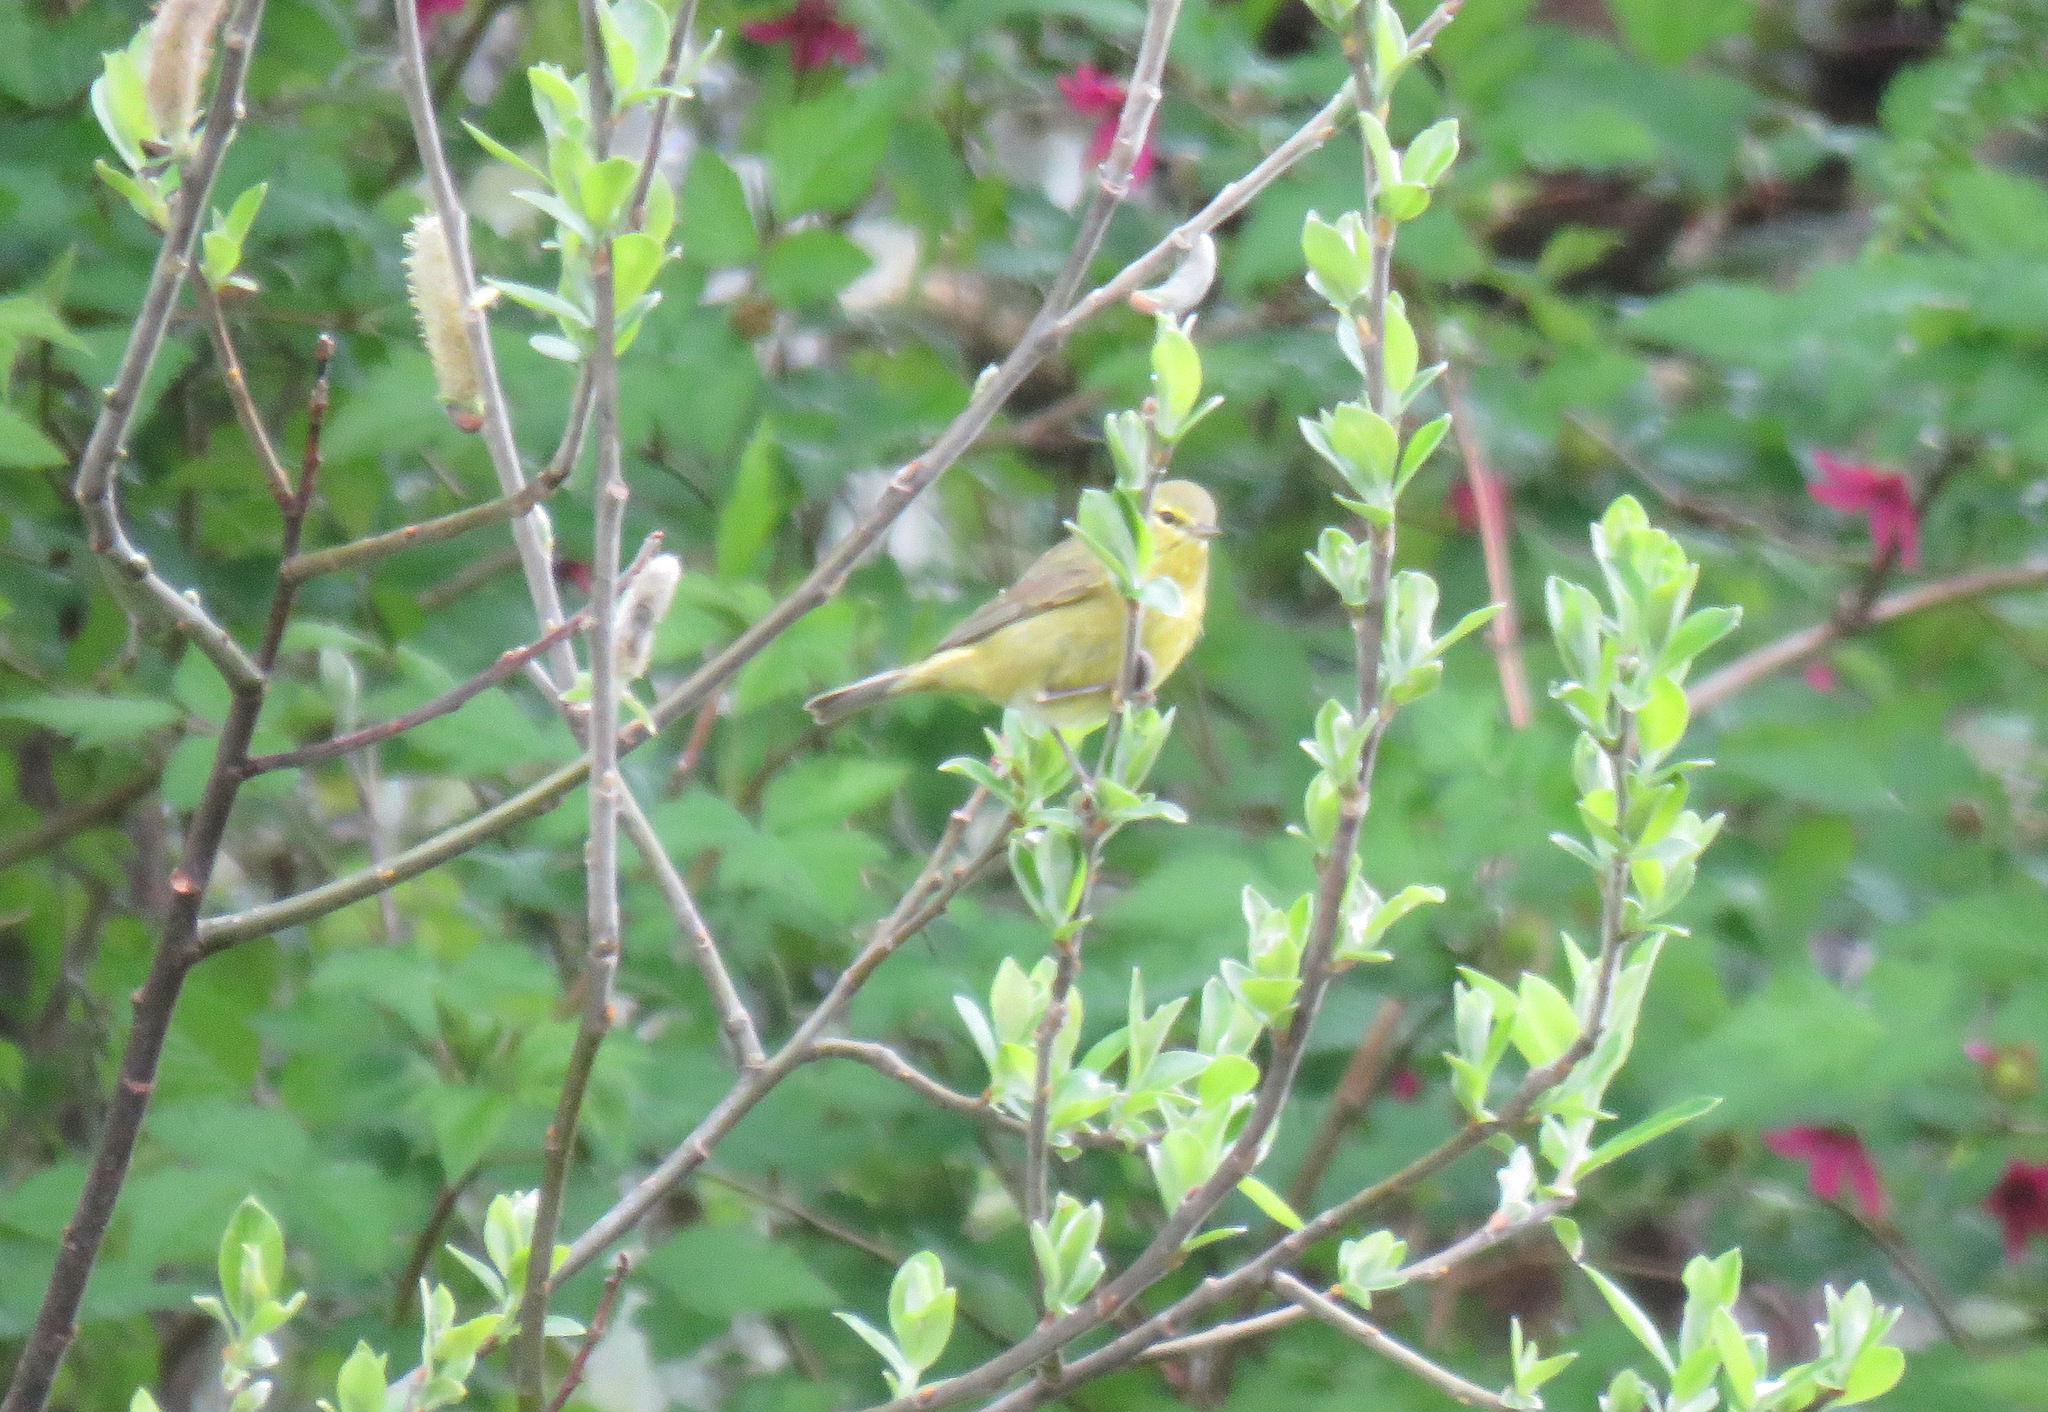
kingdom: Animalia
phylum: Chordata
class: Aves
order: Passeriformes
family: Parulidae
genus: Leiothlypis
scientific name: Leiothlypis celata
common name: Orange-crowned warbler
